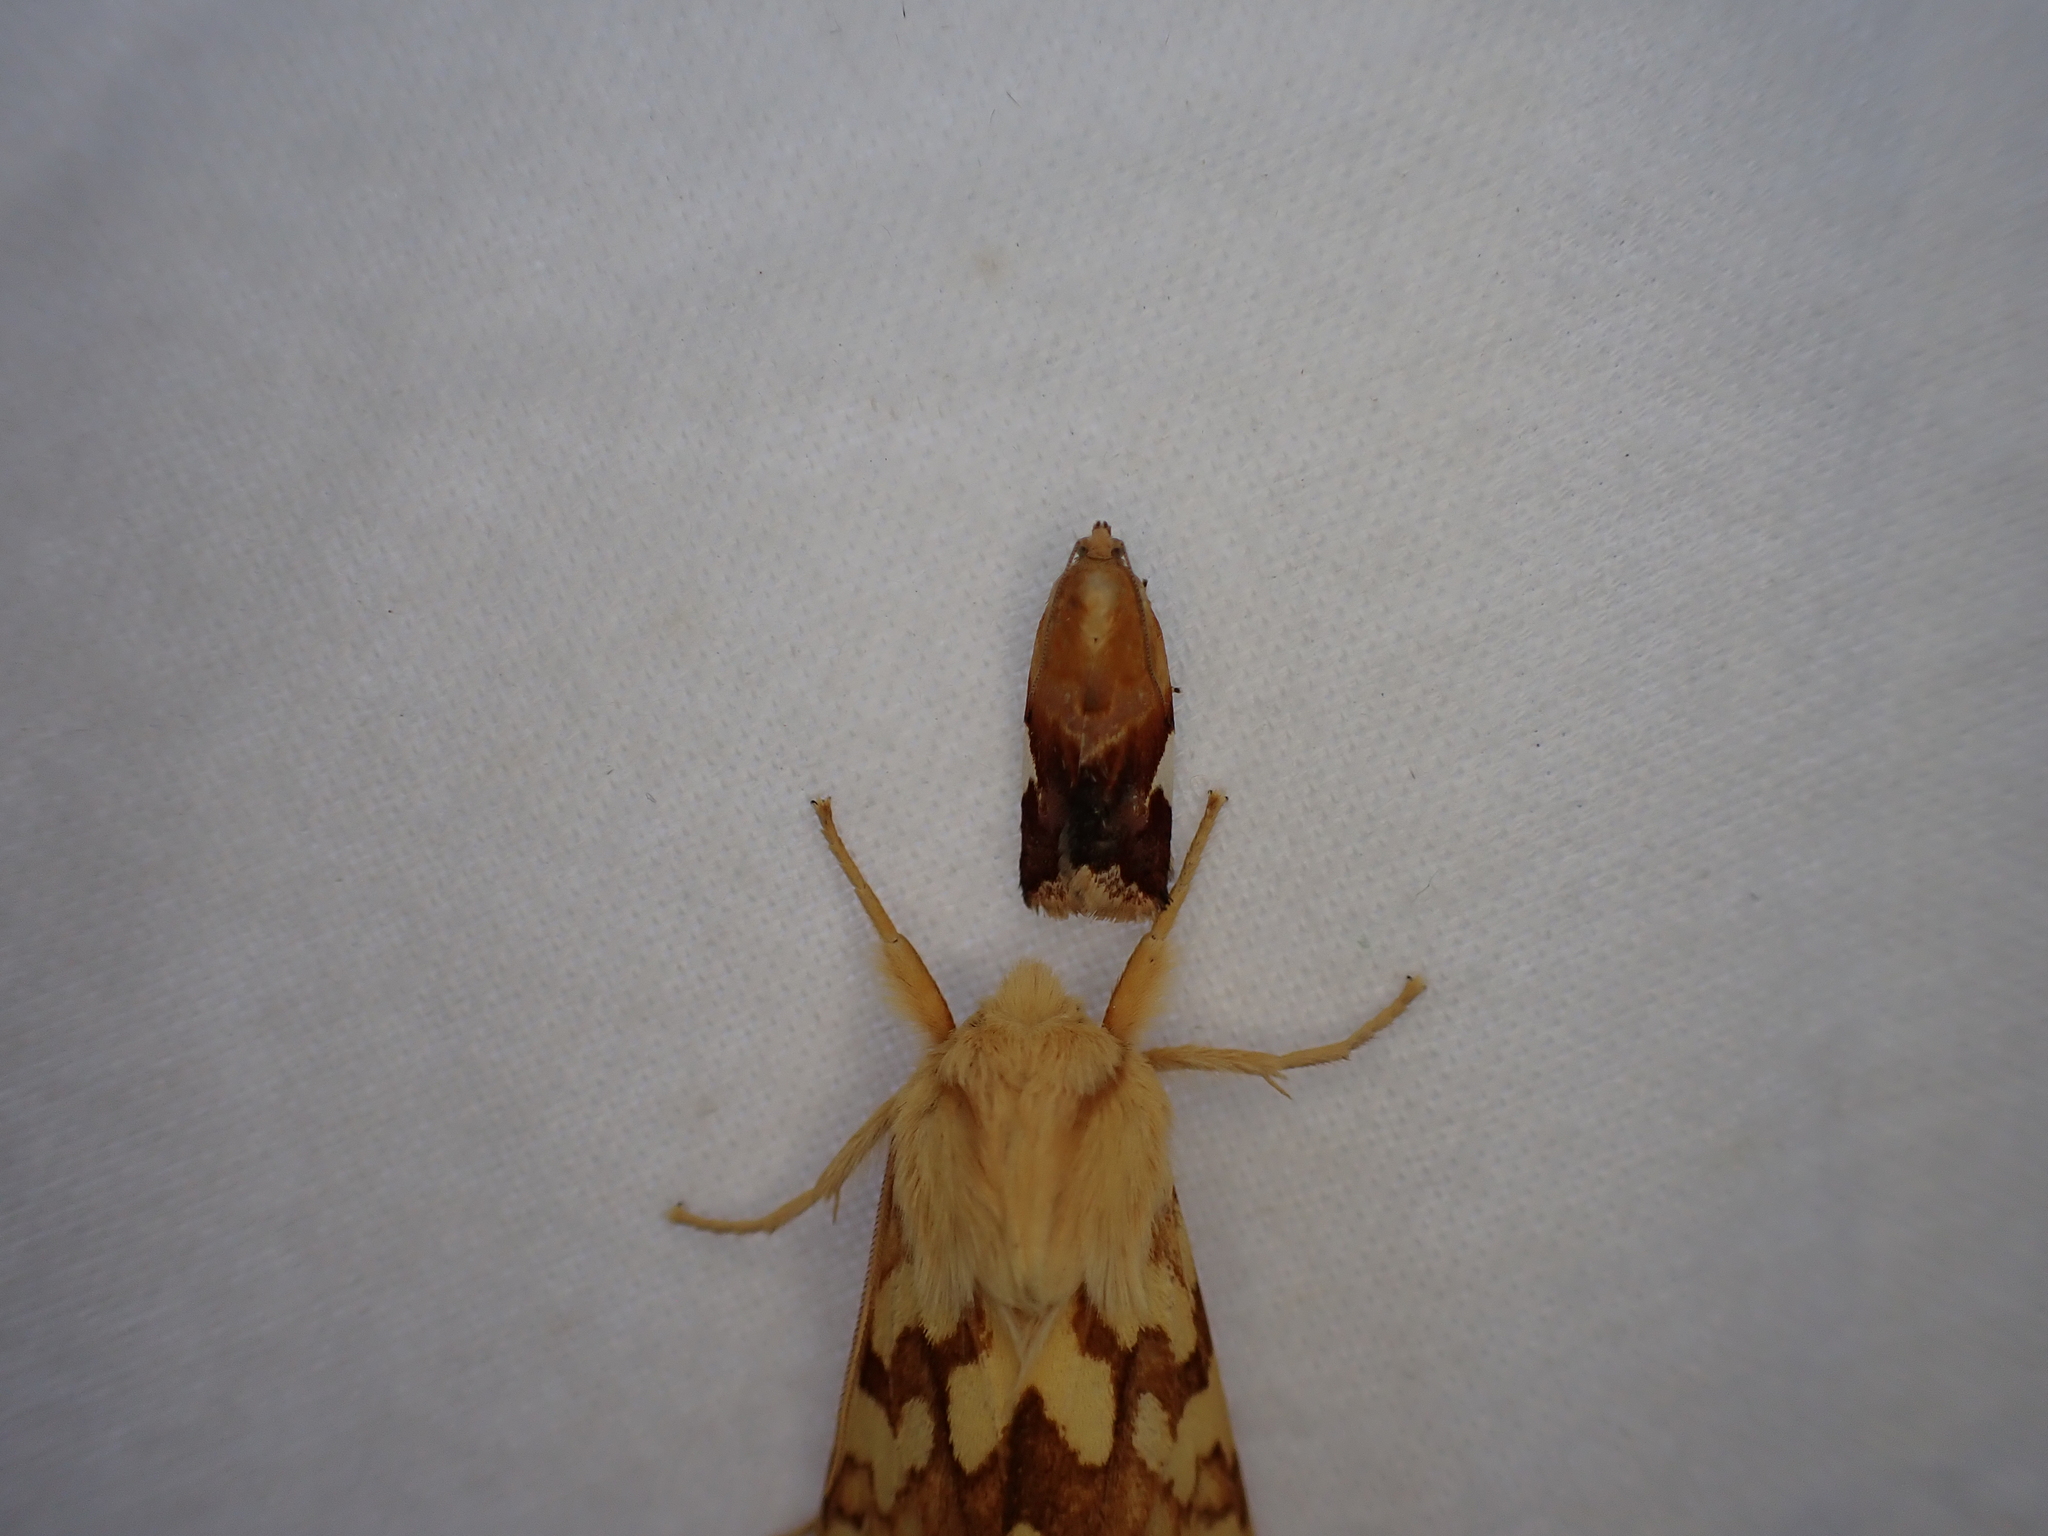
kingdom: Animalia
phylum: Arthropoda
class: Insecta
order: Lepidoptera
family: Erebidae
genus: Lophocampa
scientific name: Lophocampa maculata
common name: Spotted tussock moth
